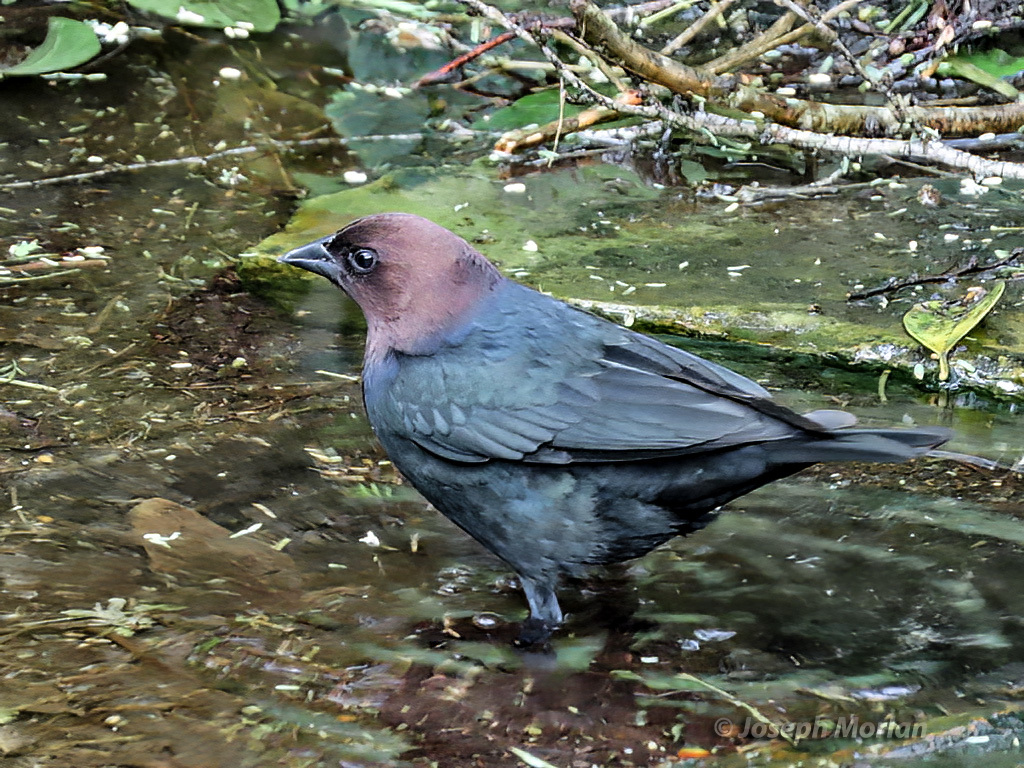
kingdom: Animalia
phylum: Chordata
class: Aves
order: Passeriformes
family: Icteridae
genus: Molothrus
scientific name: Molothrus ater
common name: Brown-headed cowbird
